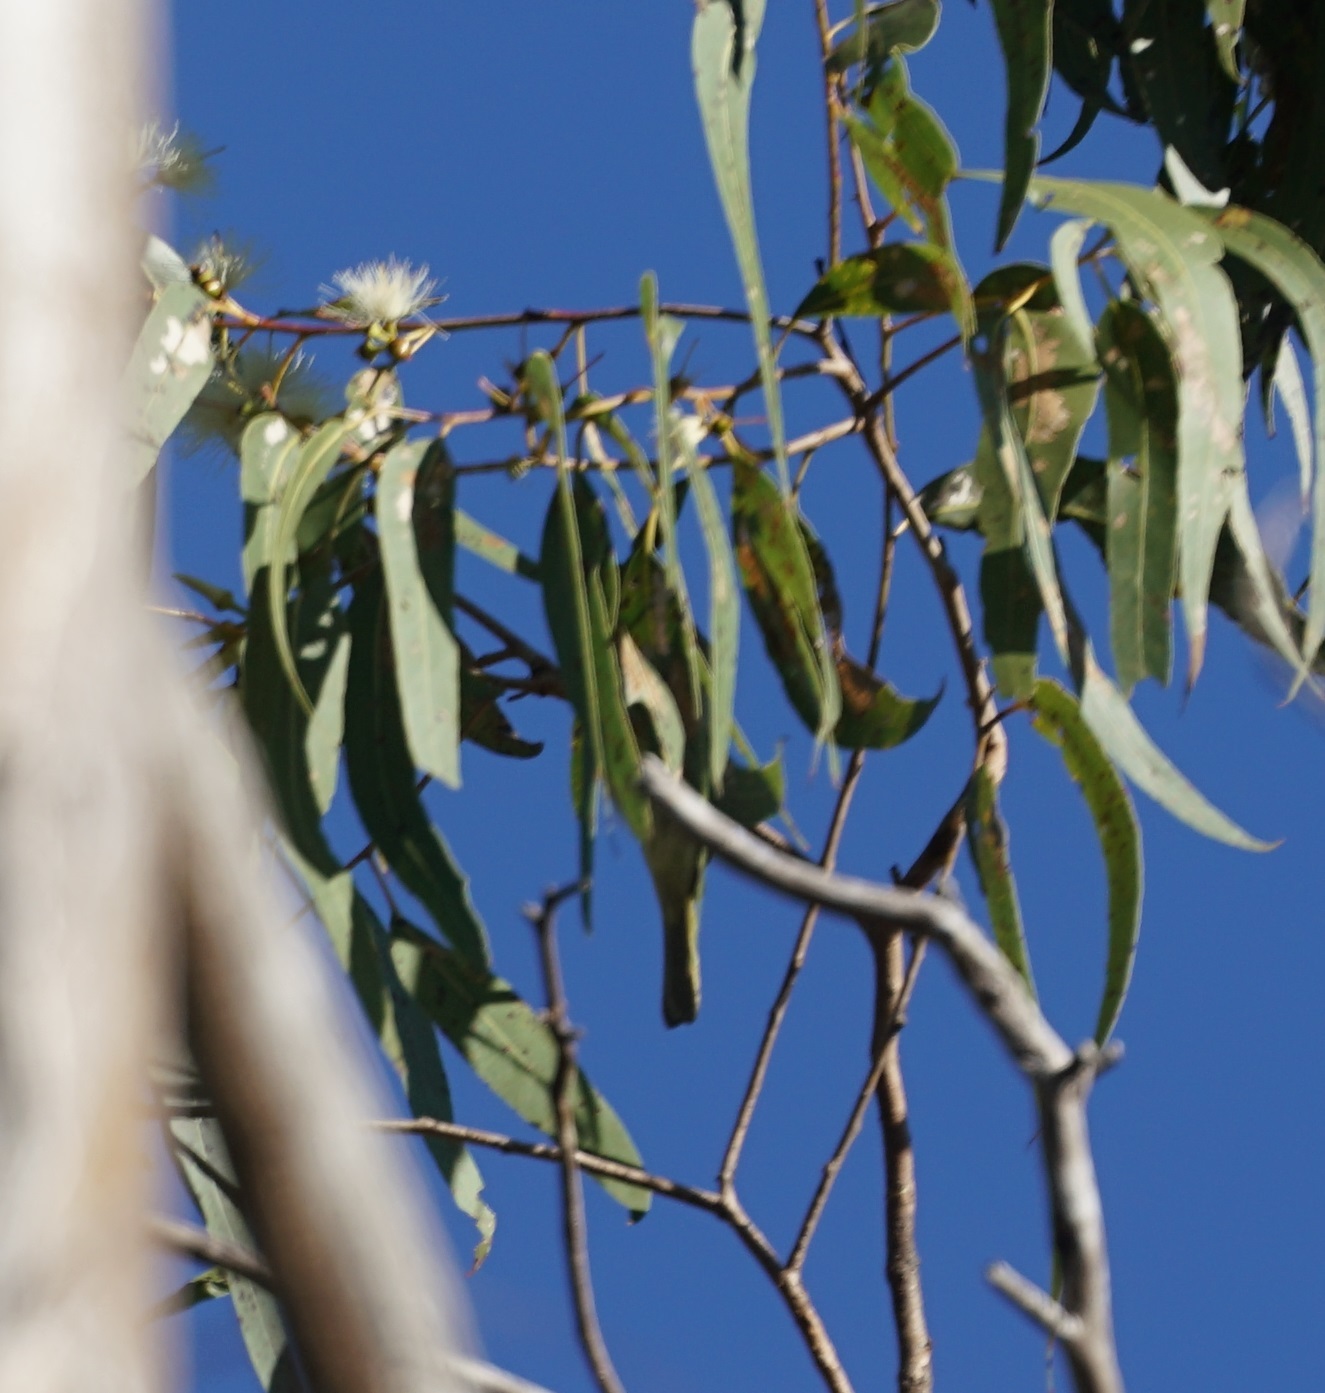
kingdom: Animalia
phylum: Chordata
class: Aves
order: Passeriformes
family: Meliphagidae
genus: Lichmera
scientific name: Lichmera indistincta
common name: Brown honeyeater
